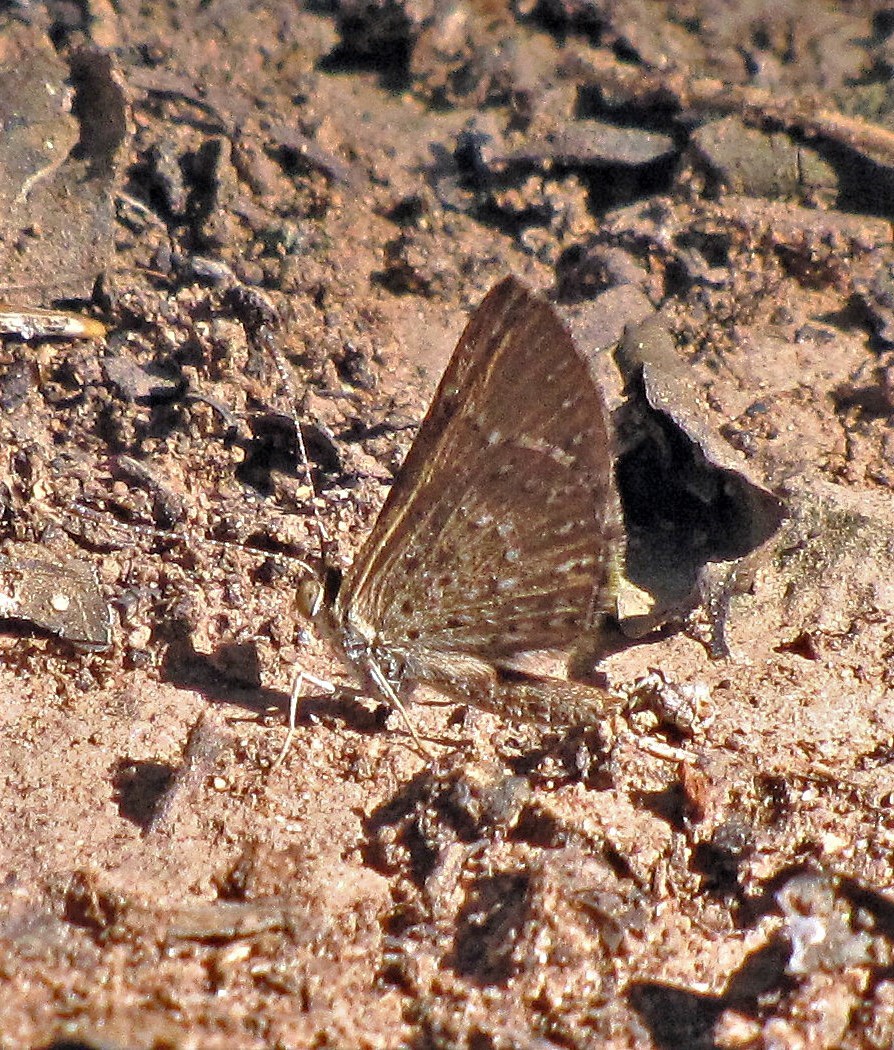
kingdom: Animalia
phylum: Arthropoda
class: Insecta
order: Lepidoptera
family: Riodinidae
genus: Zabuella
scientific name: Zabuella tenellus
